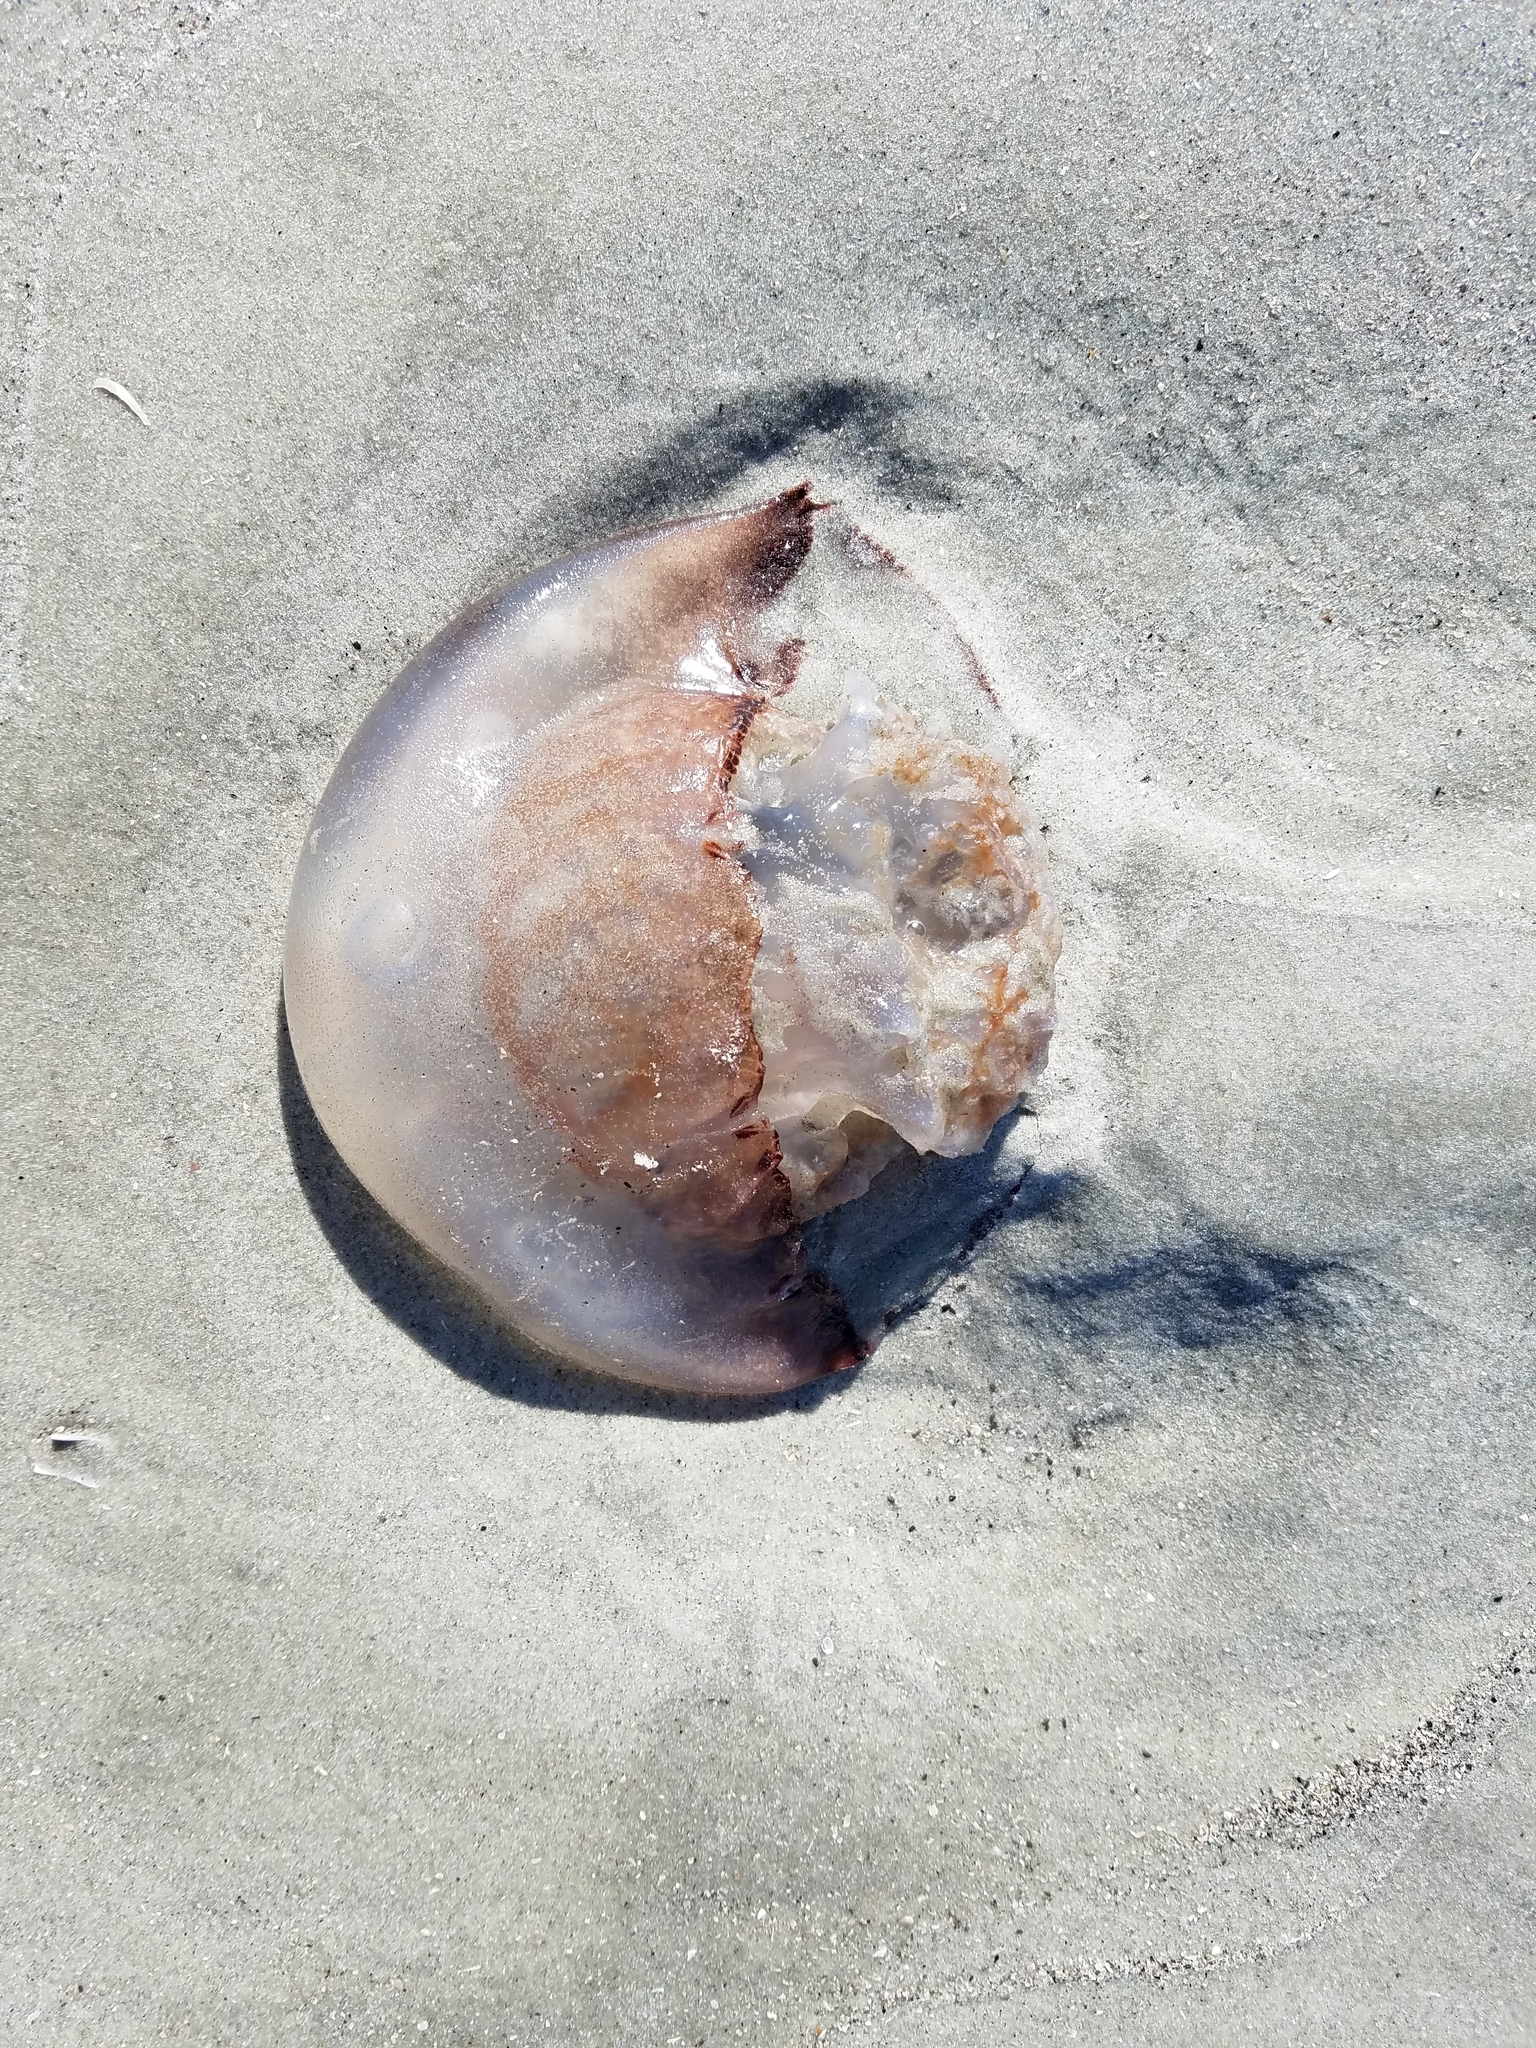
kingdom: Animalia
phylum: Cnidaria
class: Scyphozoa
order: Rhizostomeae
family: Stomolophidae
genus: Stomolophus
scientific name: Stomolophus meleagris
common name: Cabbagehead
